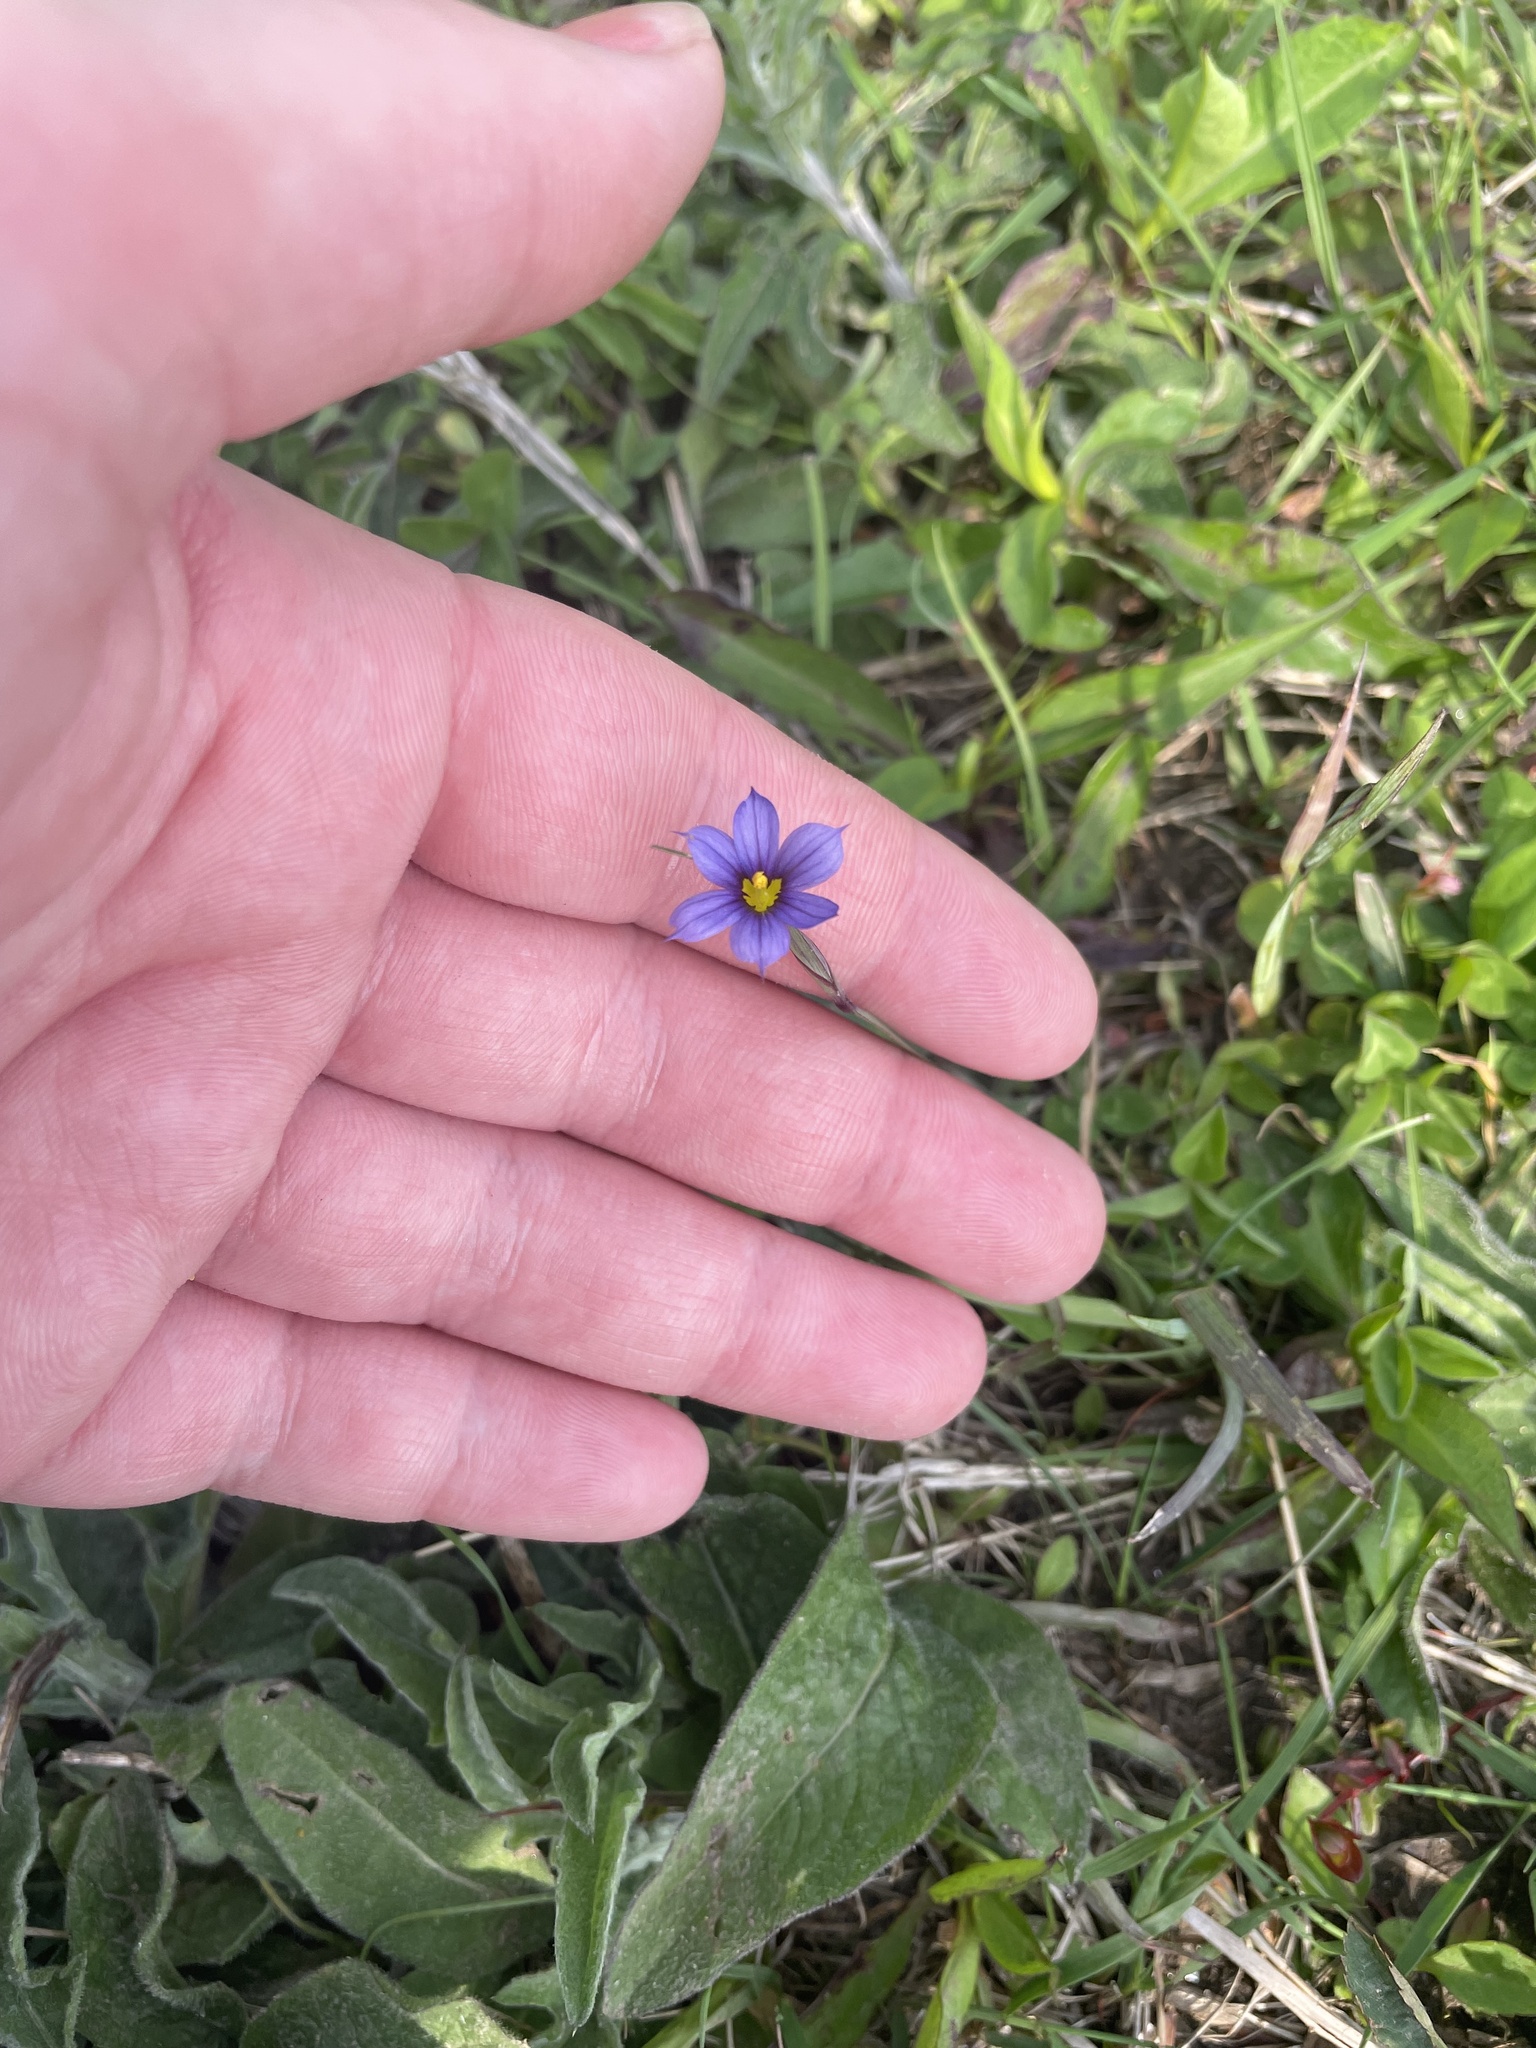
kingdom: Plantae
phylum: Tracheophyta
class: Liliopsida
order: Asparagales
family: Iridaceae
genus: Sisyrinchium
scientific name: Sisyrinchium montanum
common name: American blue-eyed-grass
